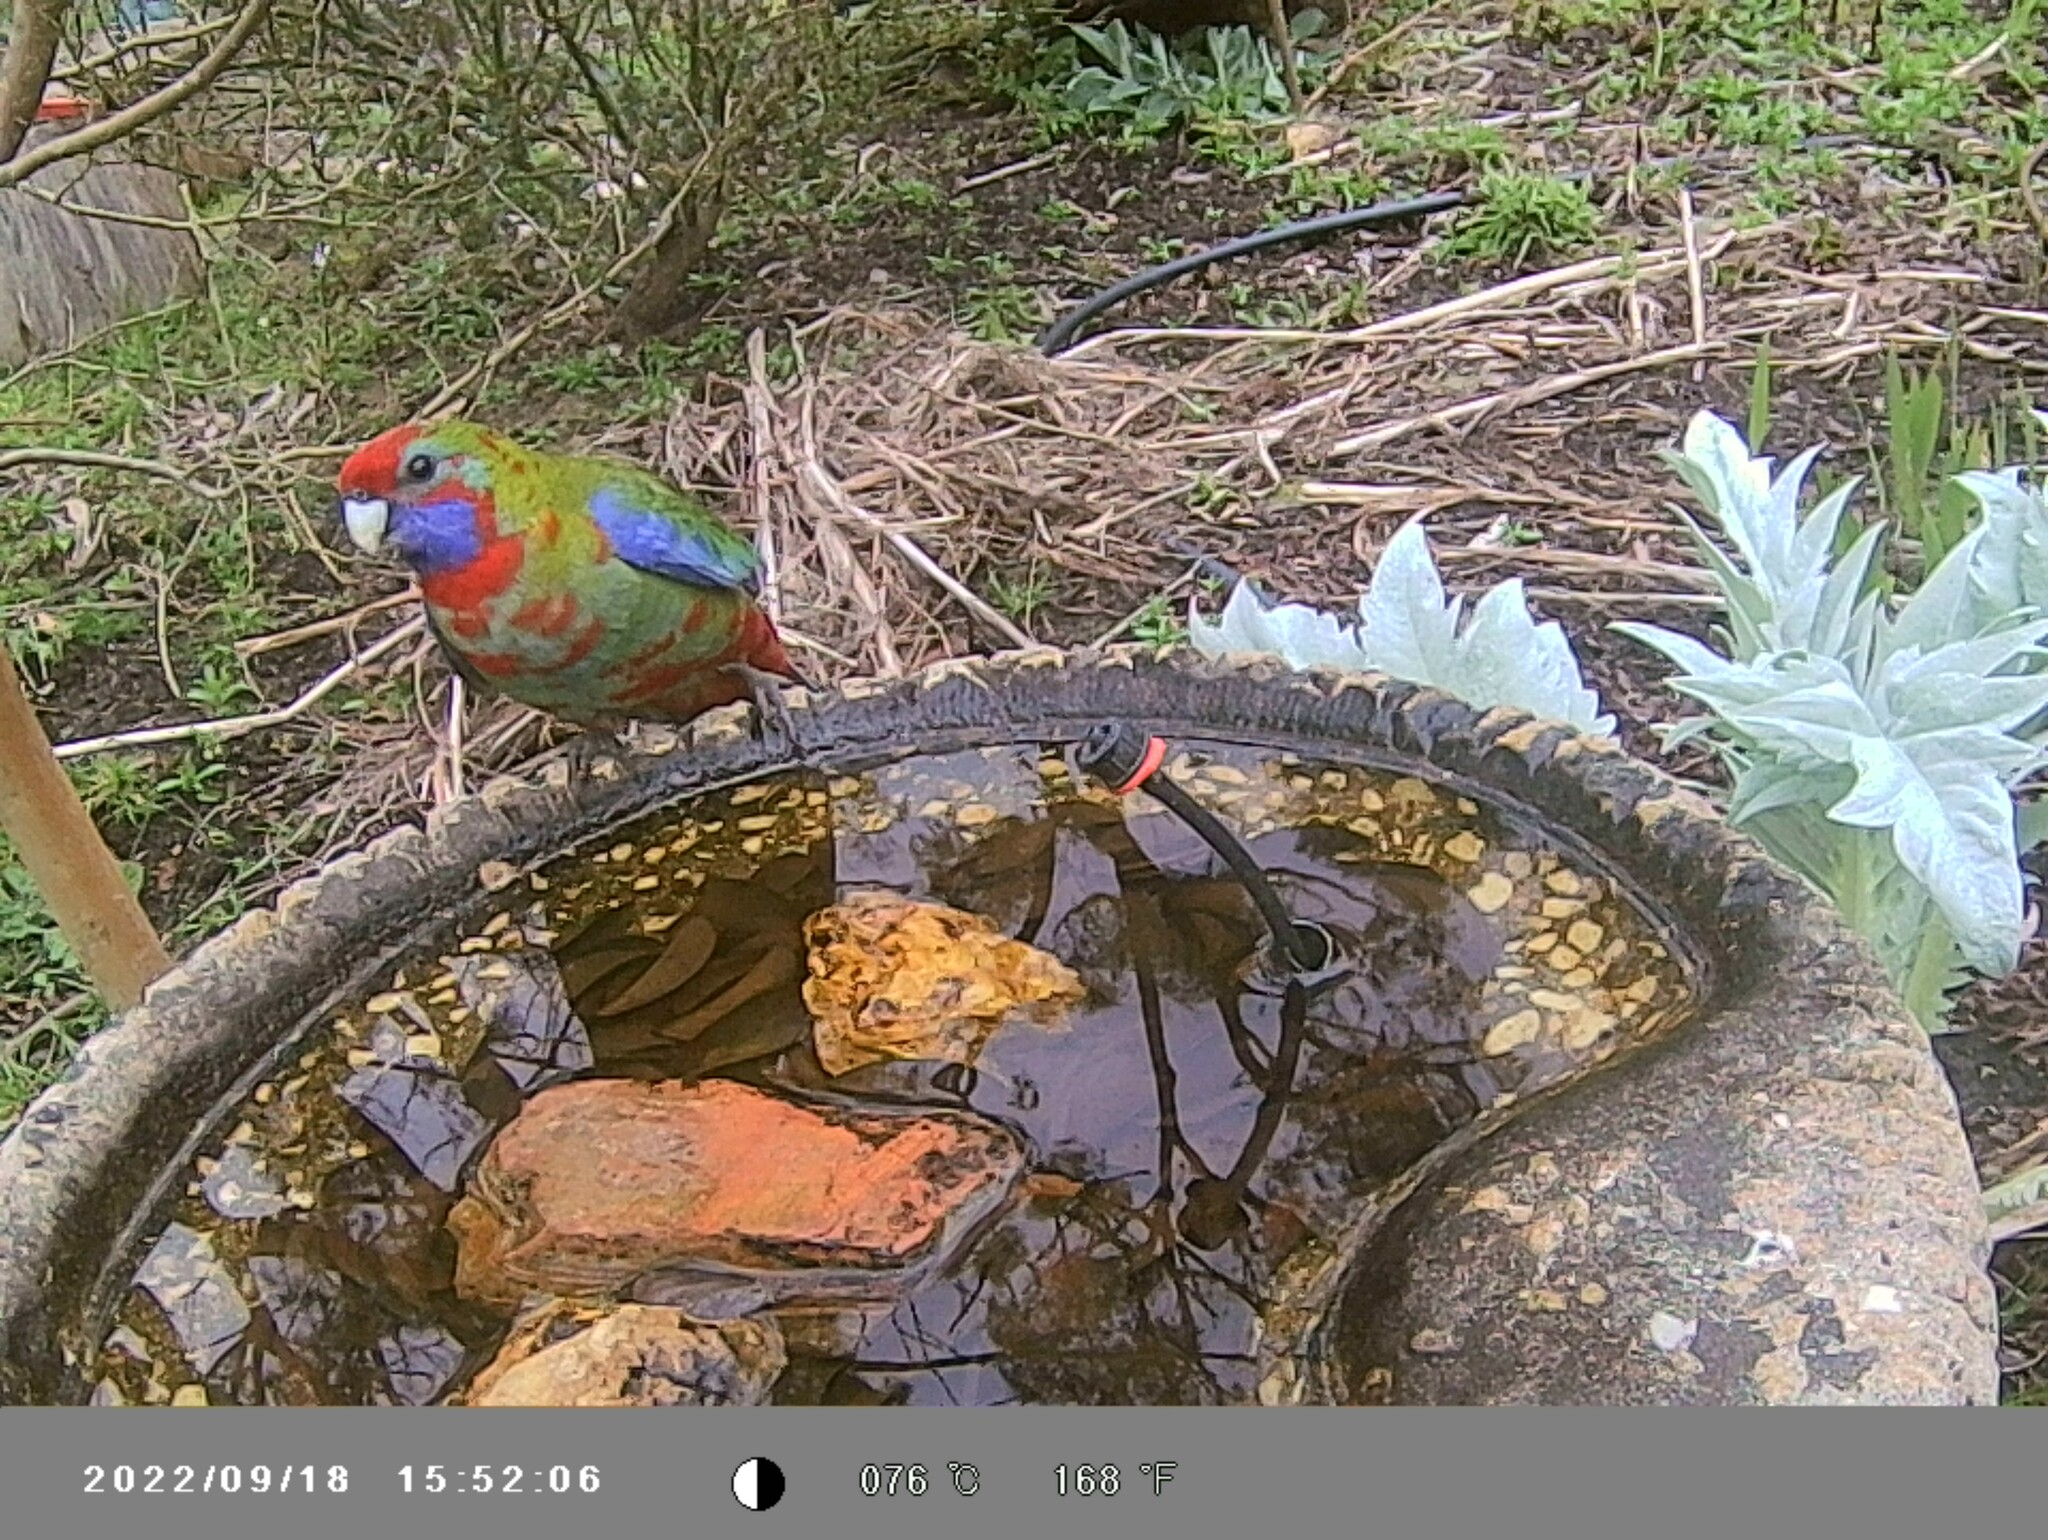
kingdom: Animalia
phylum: Chordata
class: Aves
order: Psittaciformes
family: Psittacidae
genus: Platycercus
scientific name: Platycercus elegans
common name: Crimson rosella
